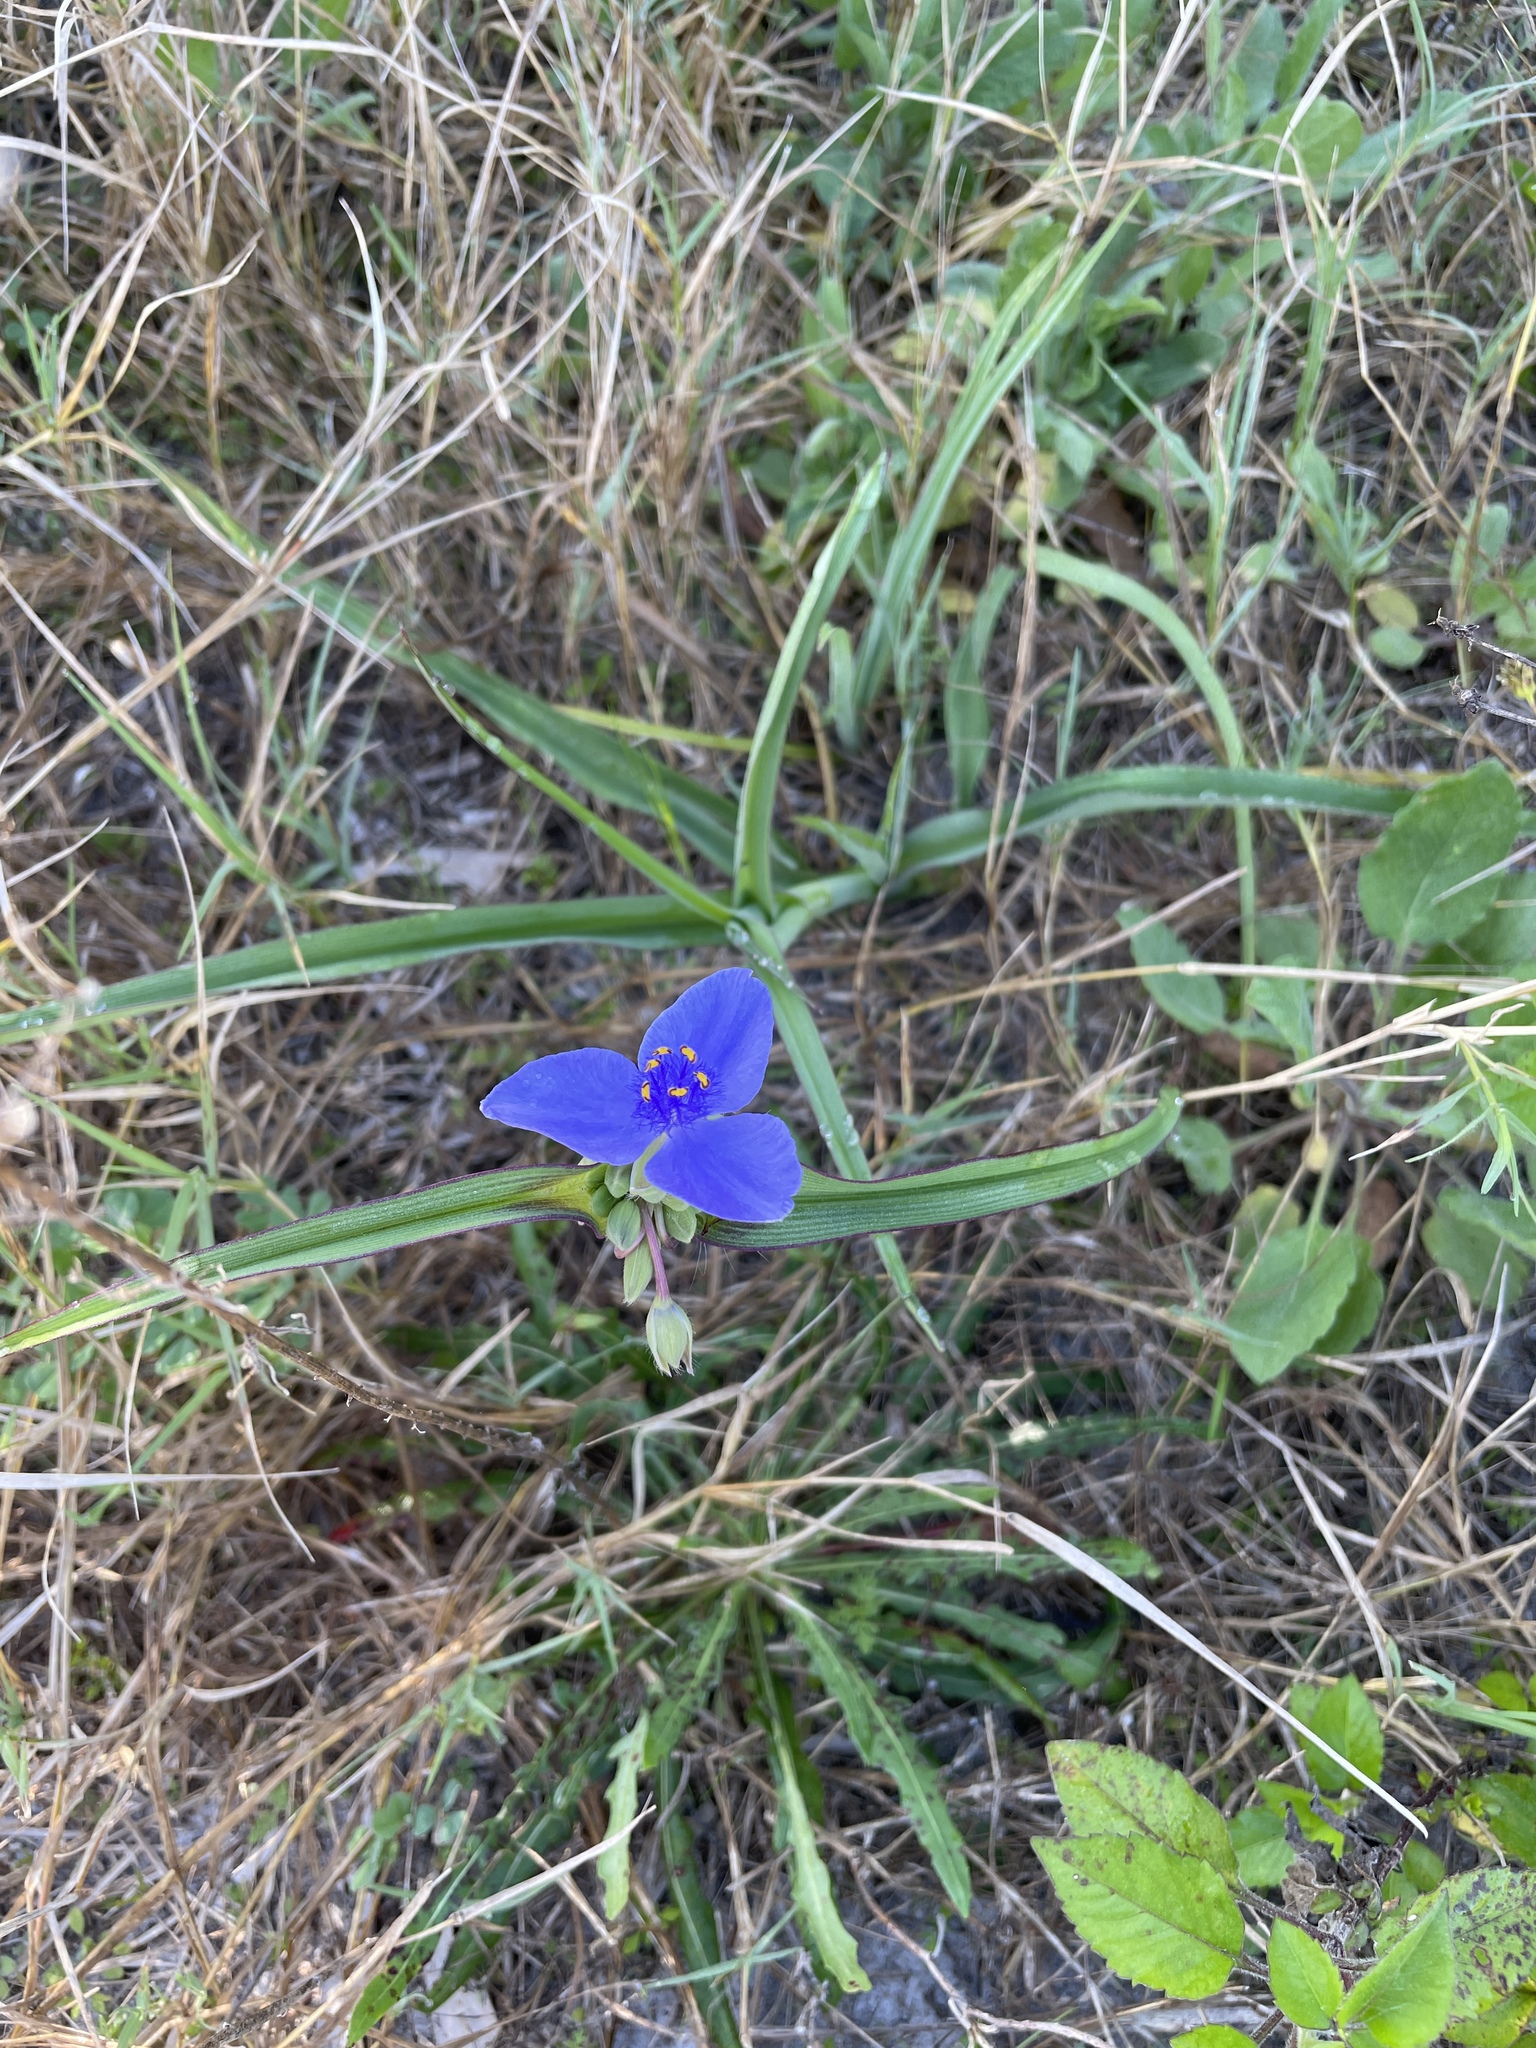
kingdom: Plantae
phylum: Tracheophyta
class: Liliopsida
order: Commelinales
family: Commelinaceae
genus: Tradescantia
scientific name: Tradescantia hirsutiflora
